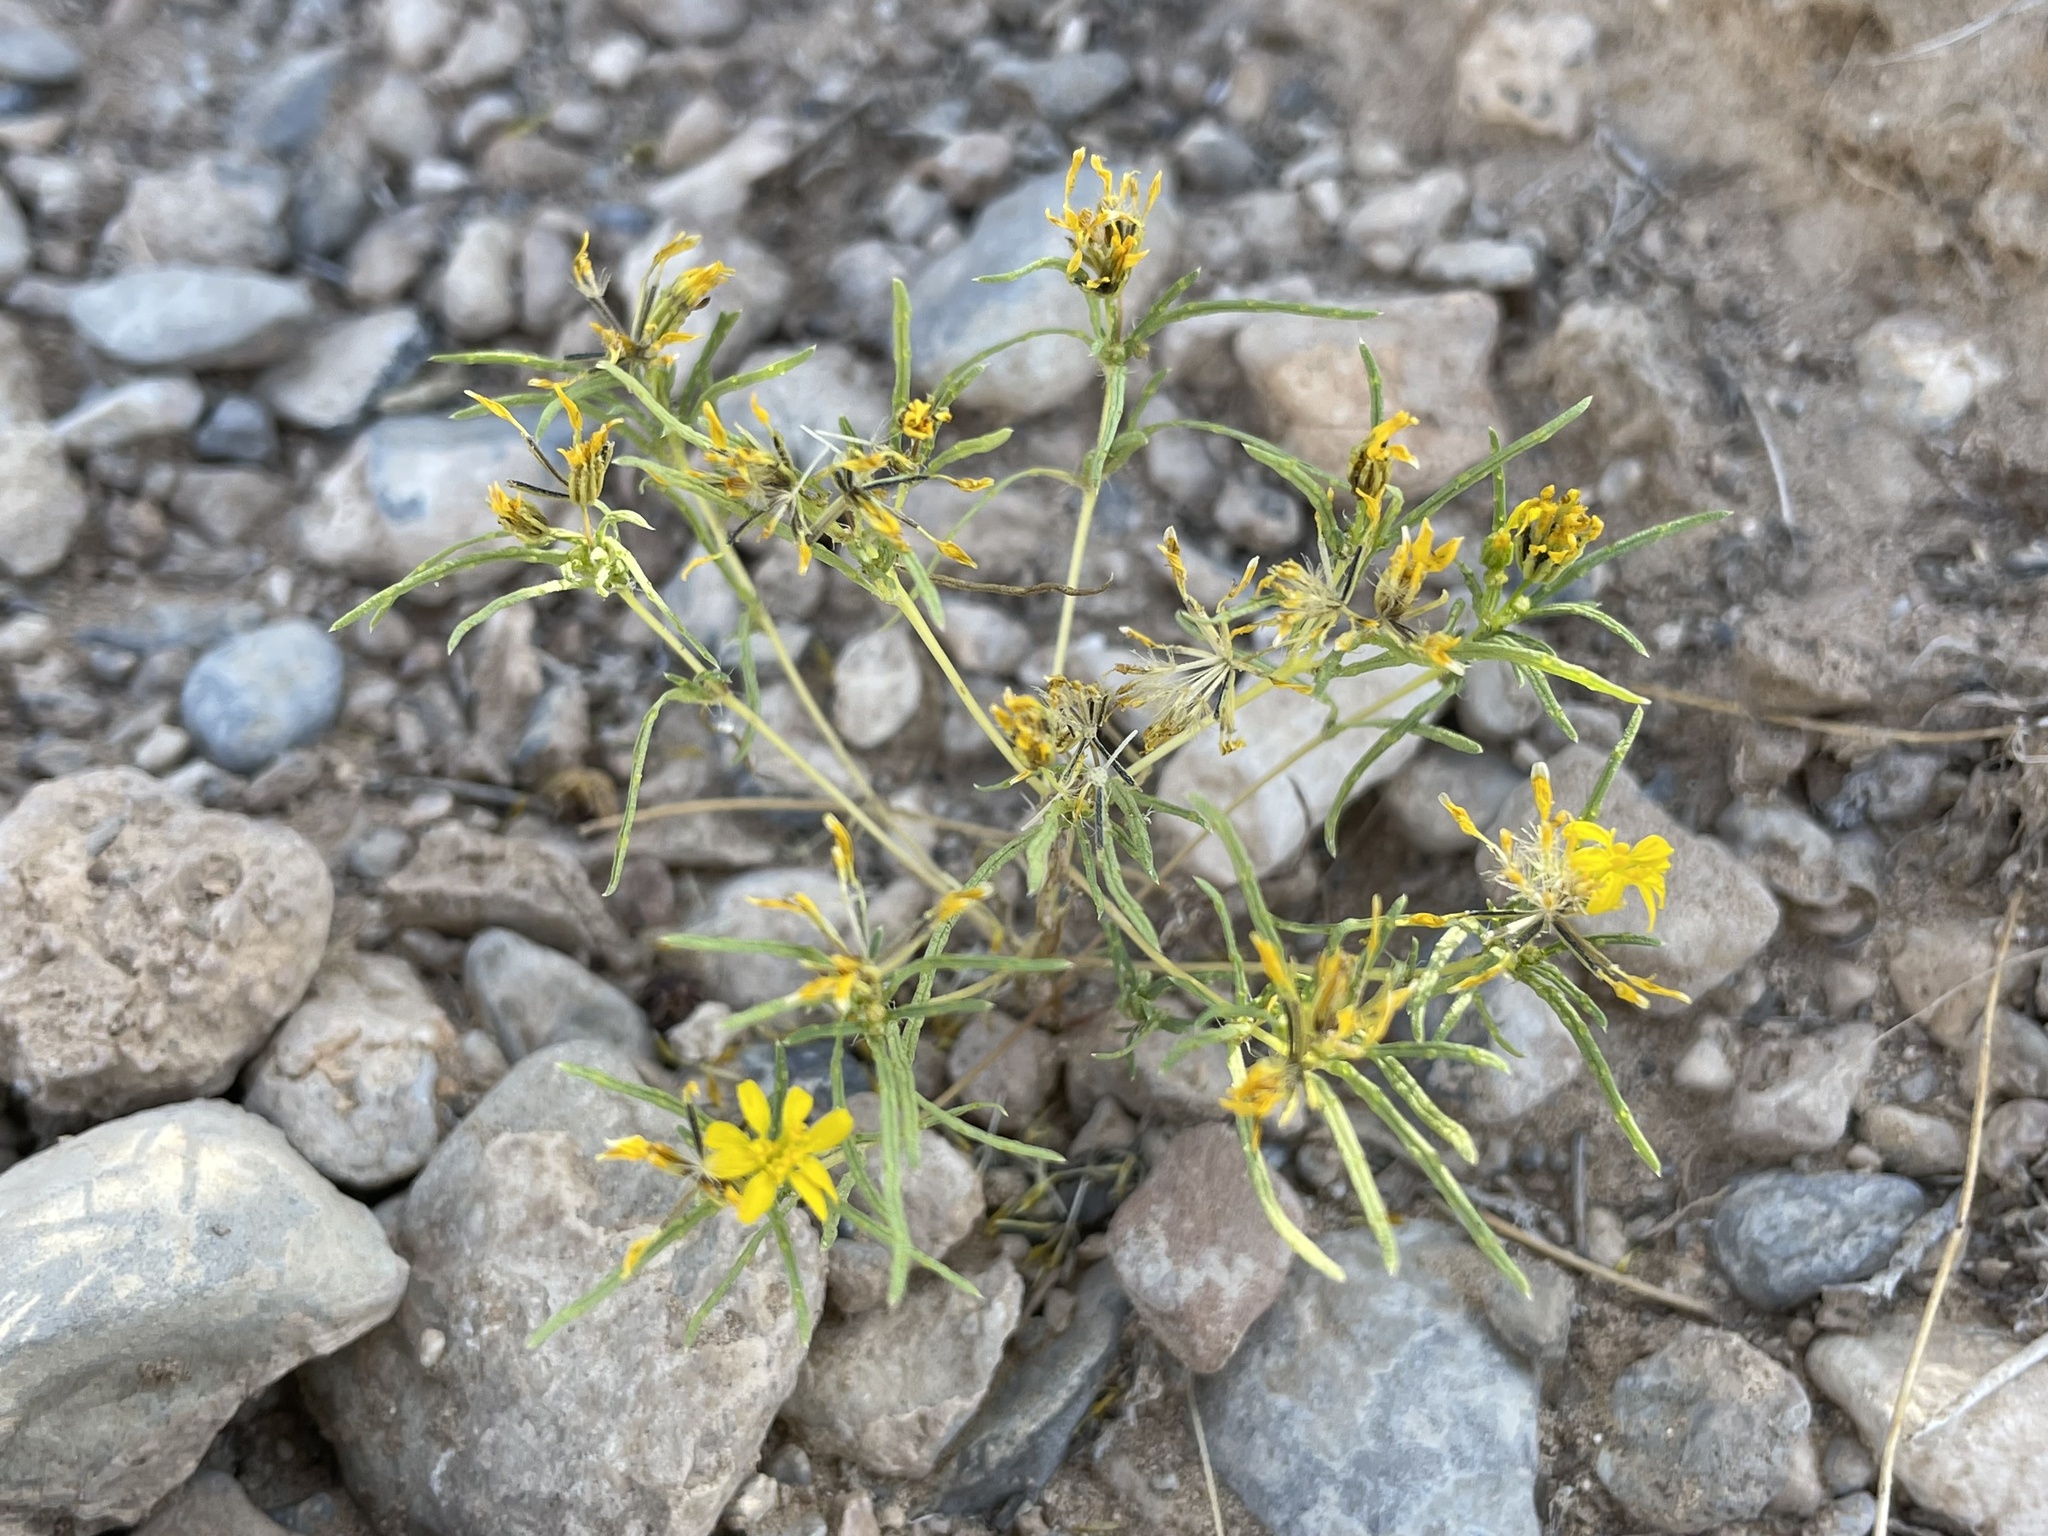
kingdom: Plantae
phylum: Tracheophyta
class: Magnoliopsida
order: Asterales
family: Asteraceae
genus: Pectis
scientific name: Pectis papposa
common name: Many-bristle chinchweed
